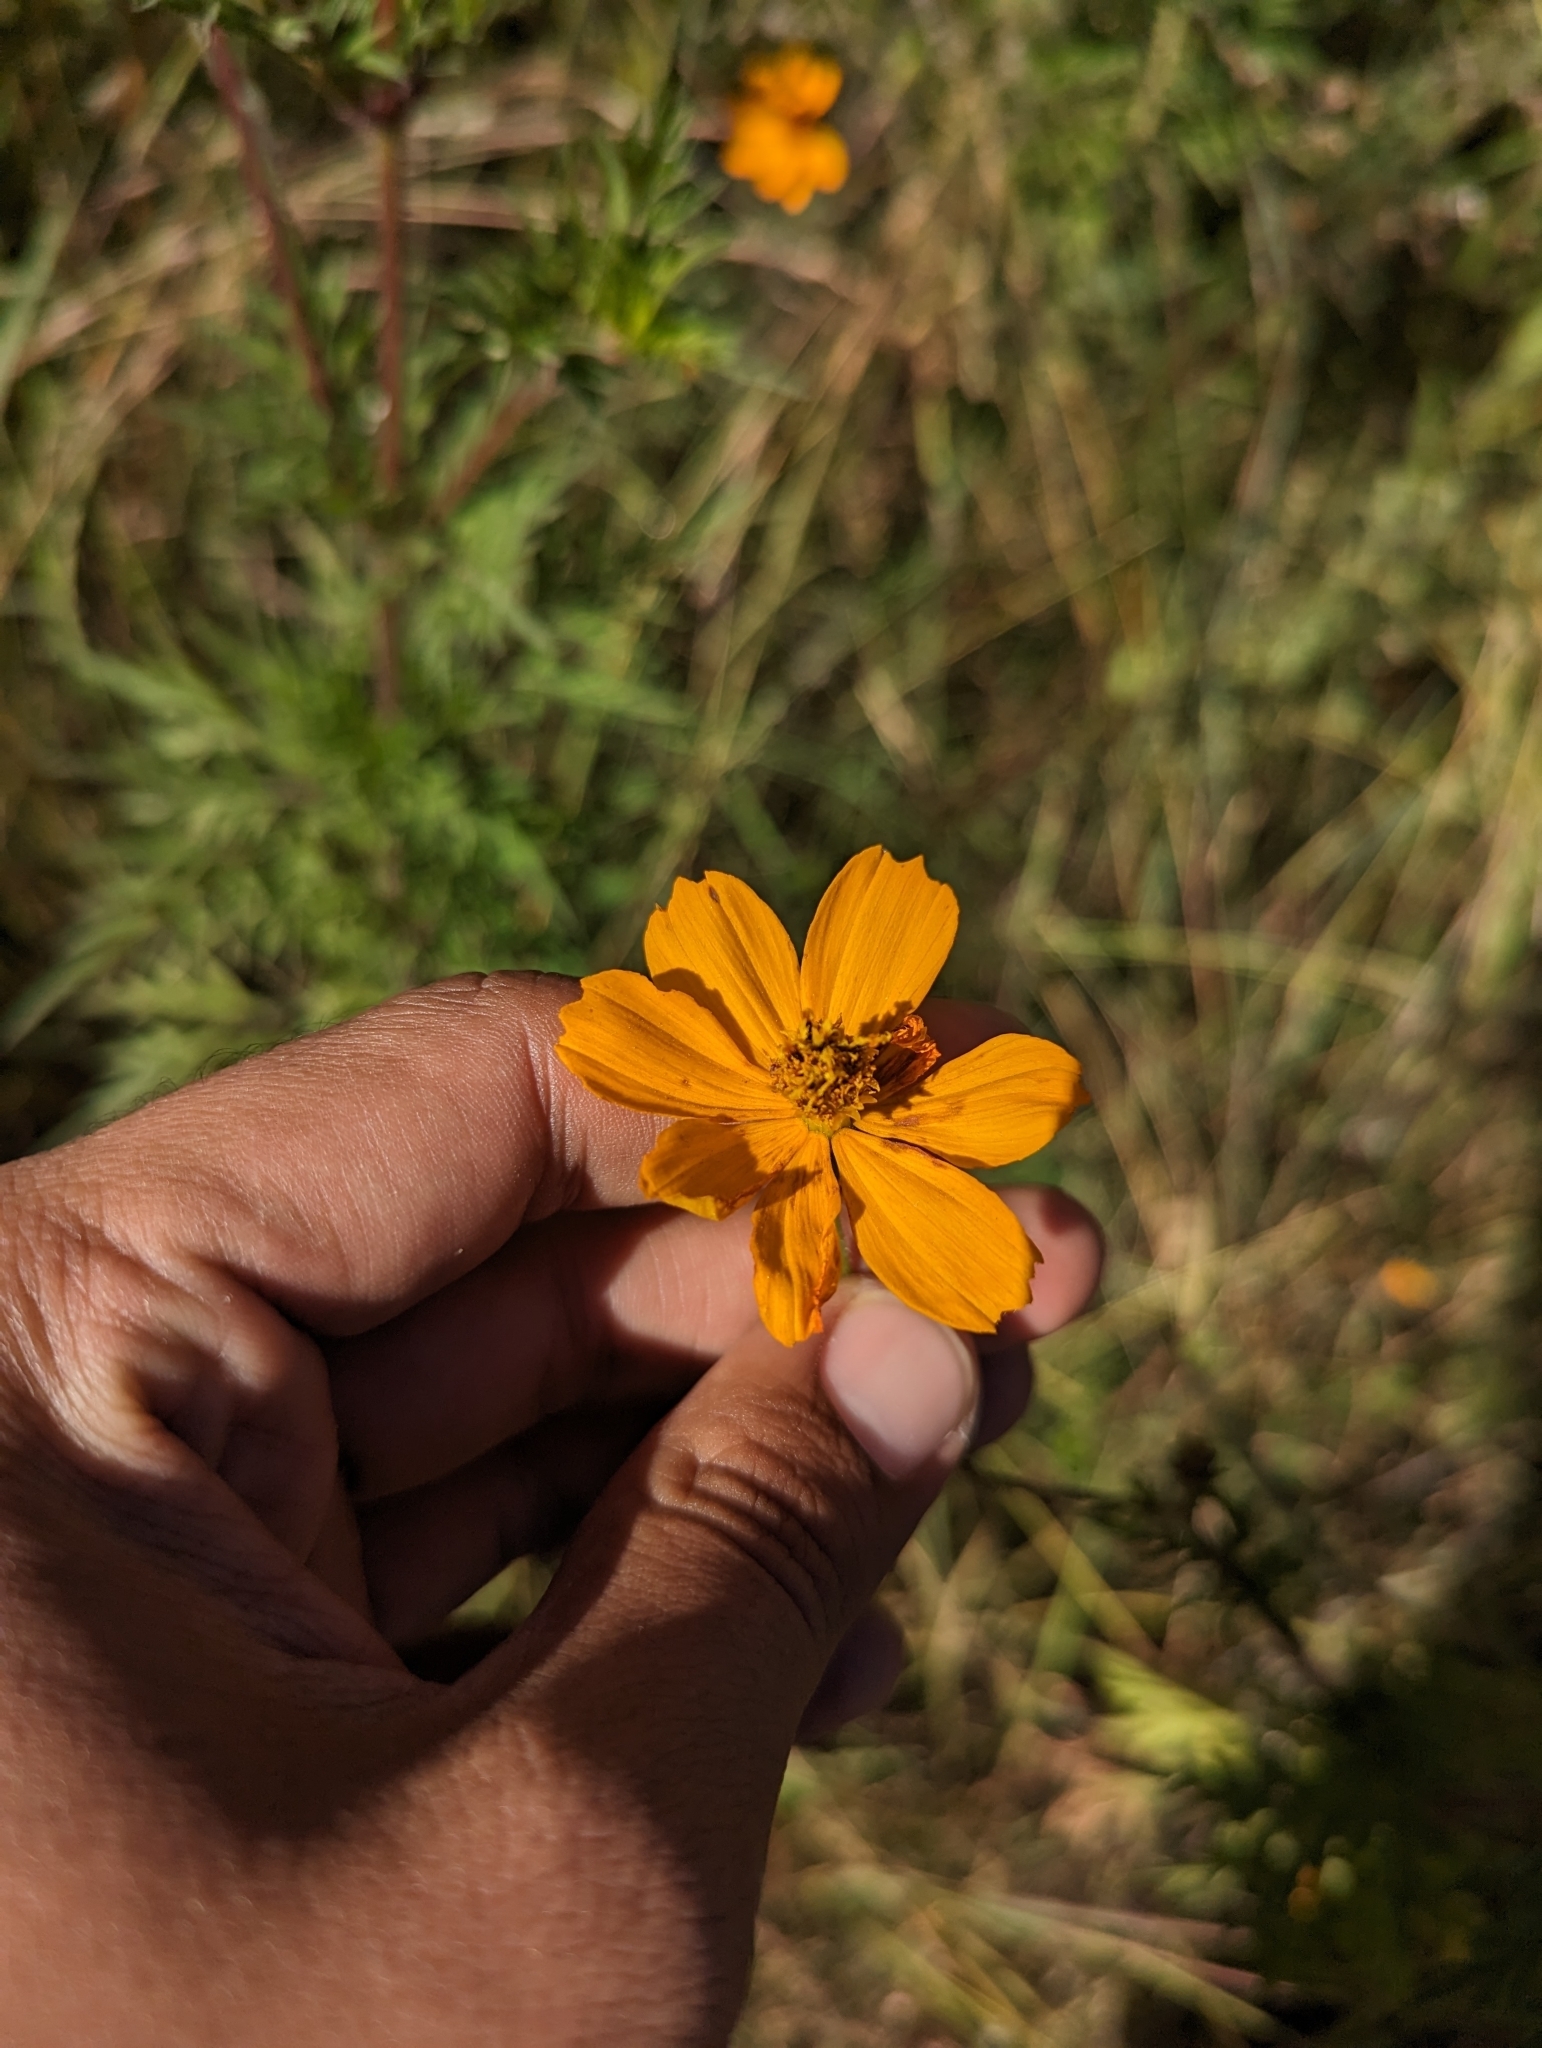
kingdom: Plantae
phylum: Tracheophyta
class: Magnoliopsida
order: Asterales
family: Asteraceae
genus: Cosmos
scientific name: Cosmos sulphureus
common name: Sulphur cosmos
